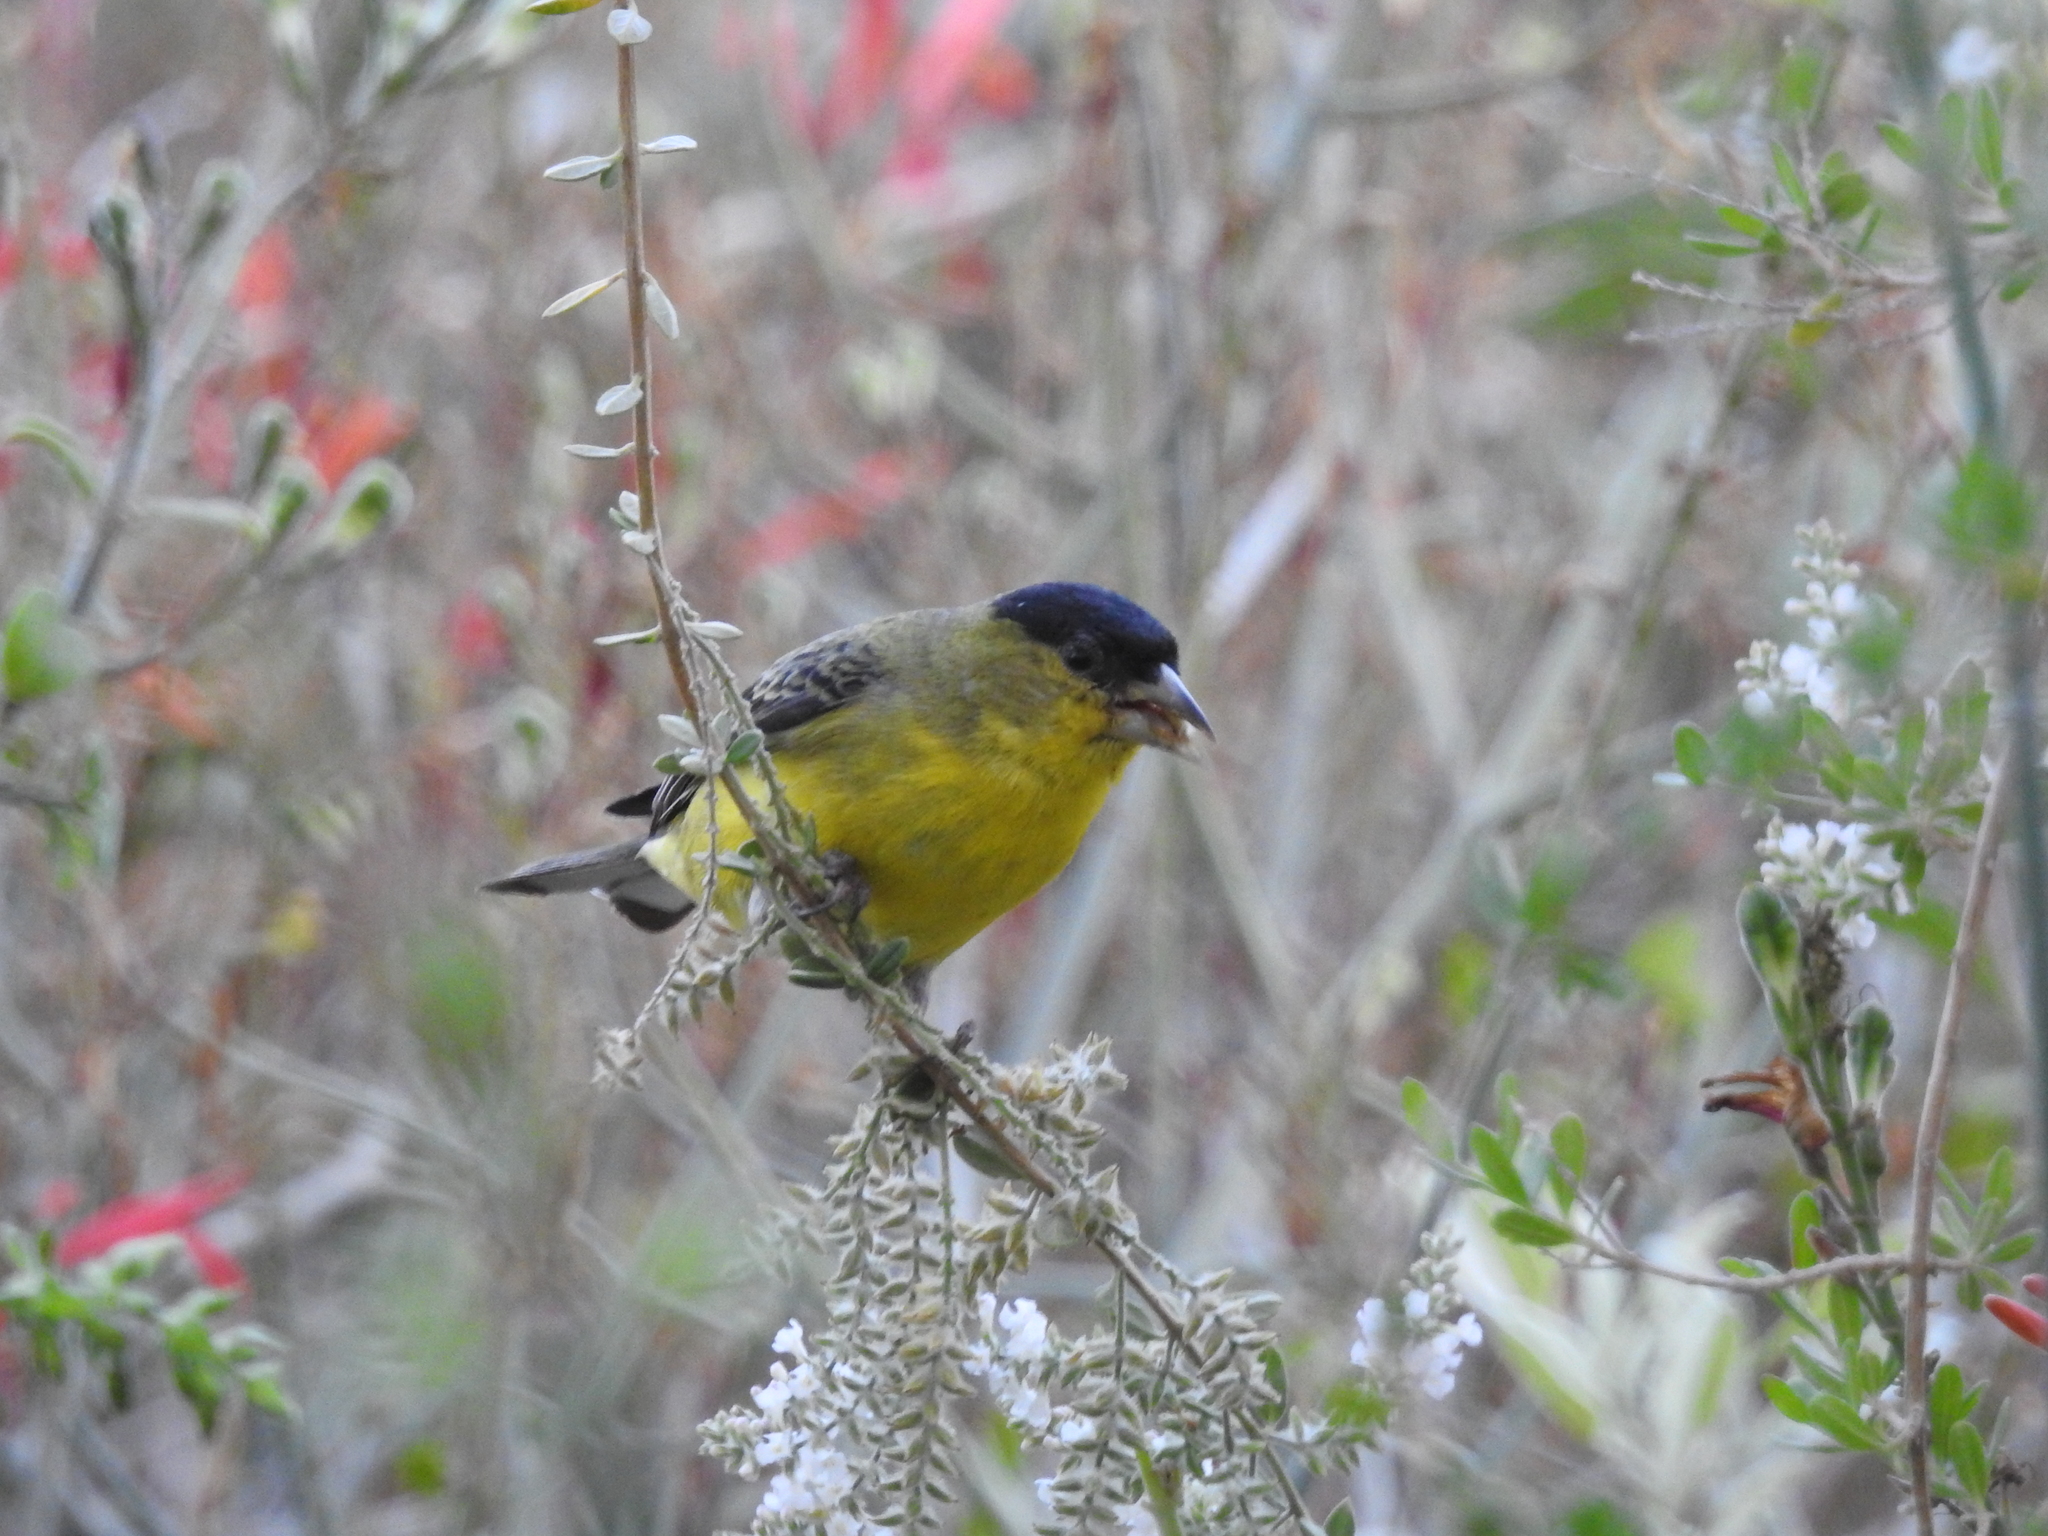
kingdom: Animalia
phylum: Chordata
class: Aves
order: Passeriformes
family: Fringillidae
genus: Spinus
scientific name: Spinus psaltria
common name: Lesser goldfinch
